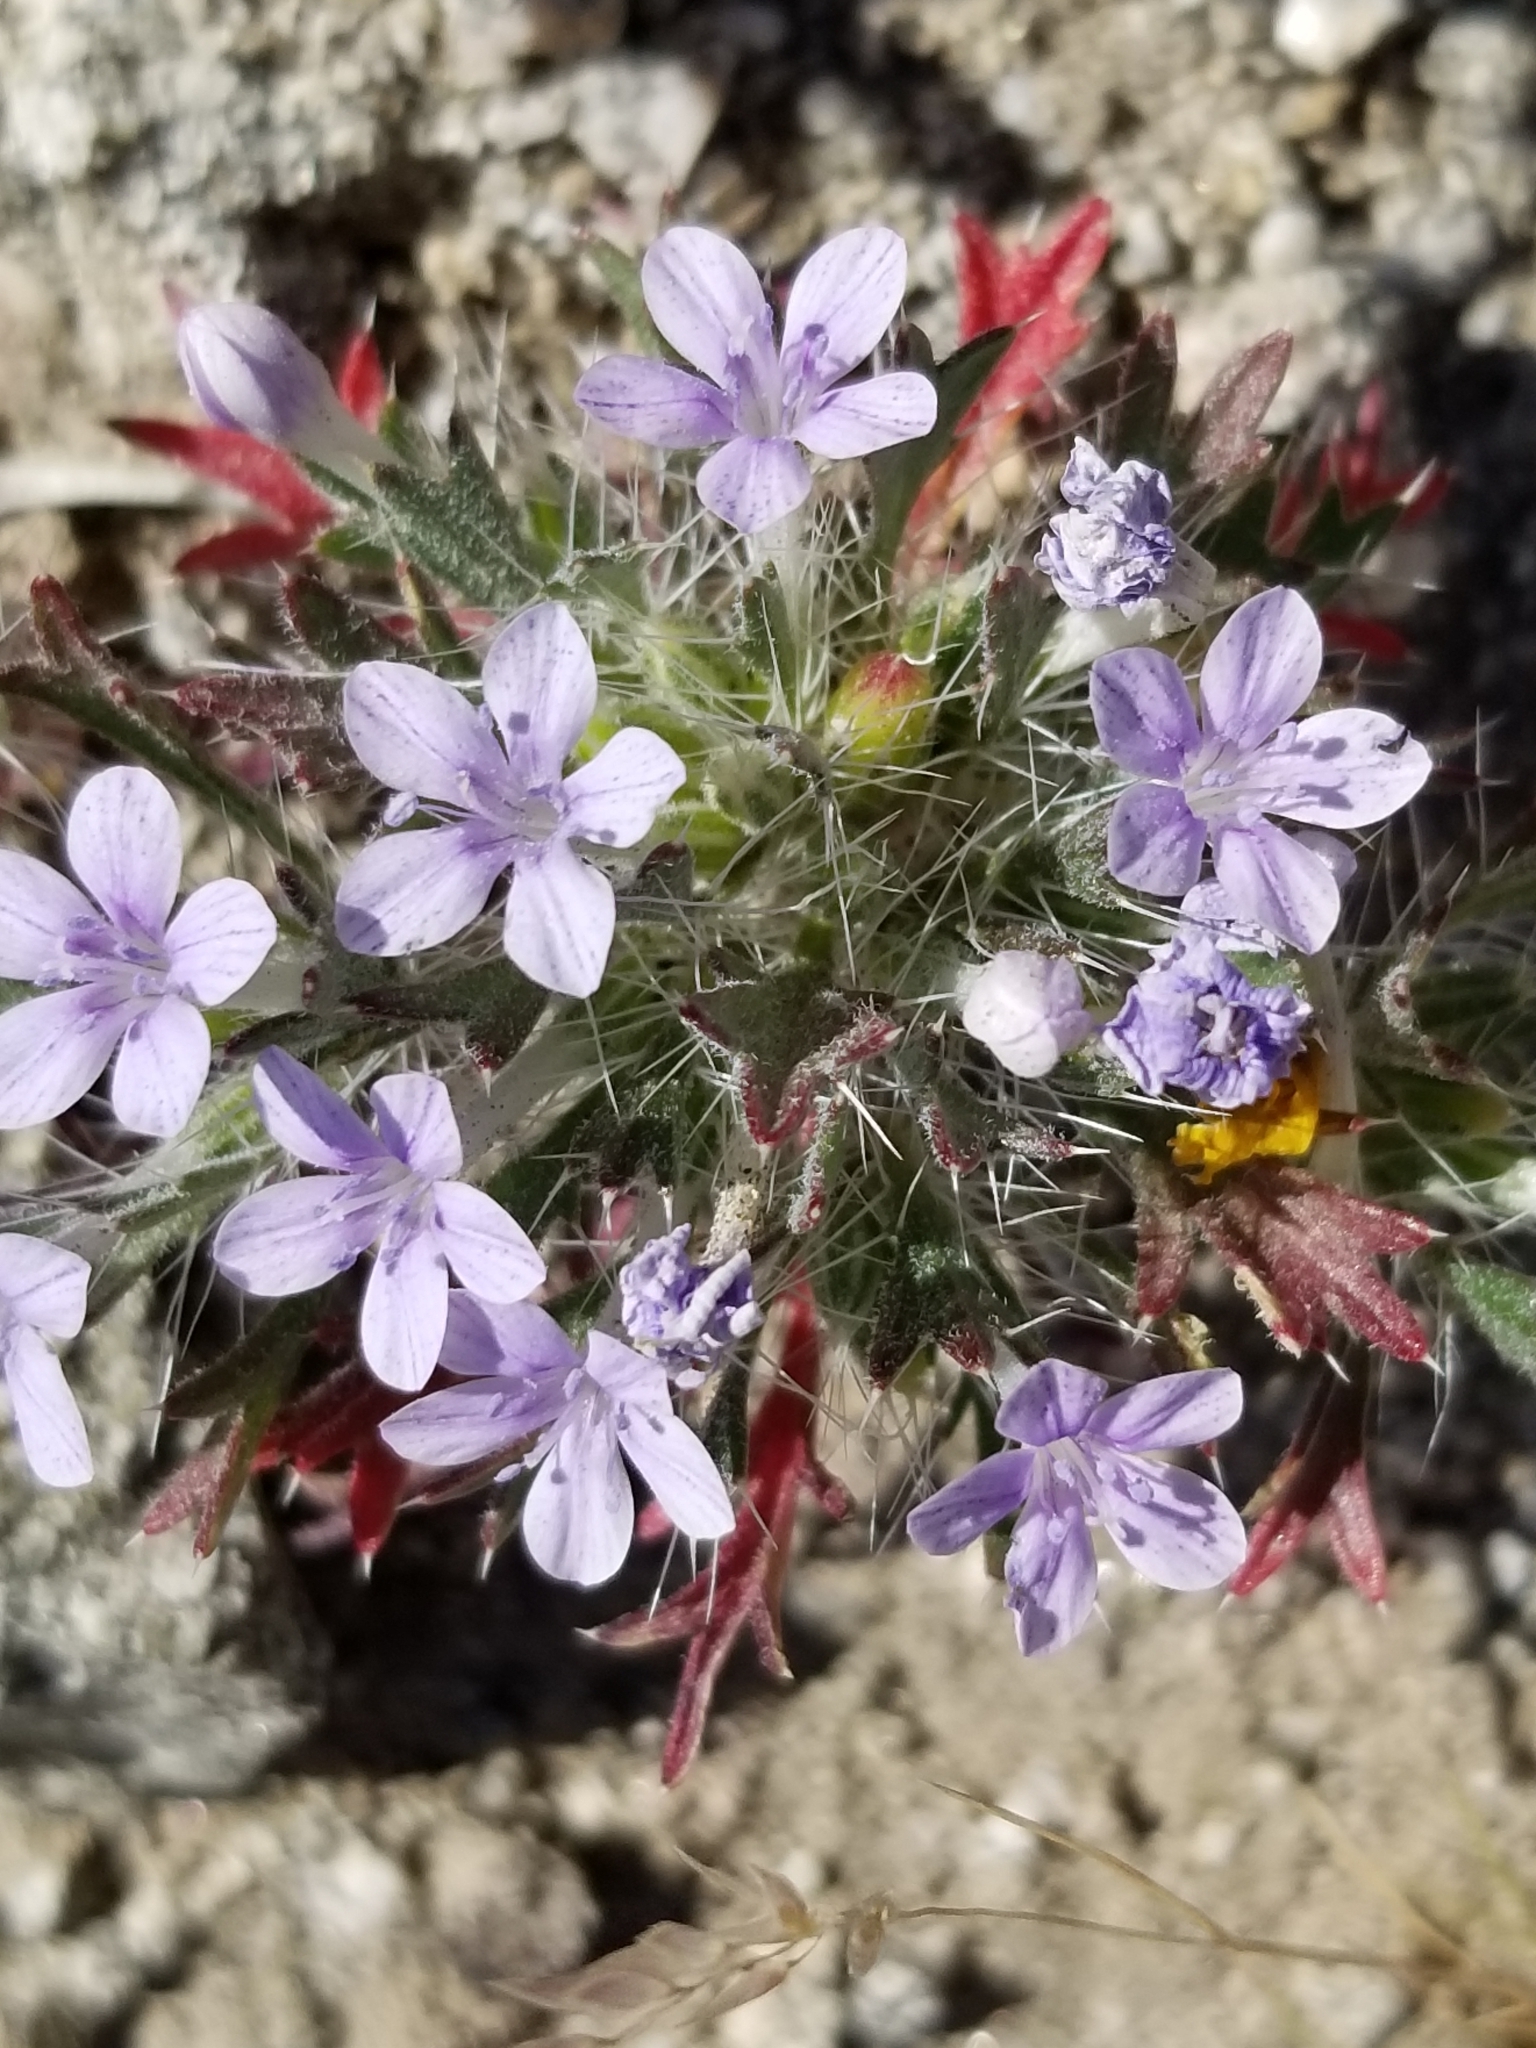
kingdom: Plantae
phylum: Tracheophyta
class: Magnoliopsida
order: Ericales
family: Polemoniaceae
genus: Langloisia
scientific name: Langloisia setosissima
